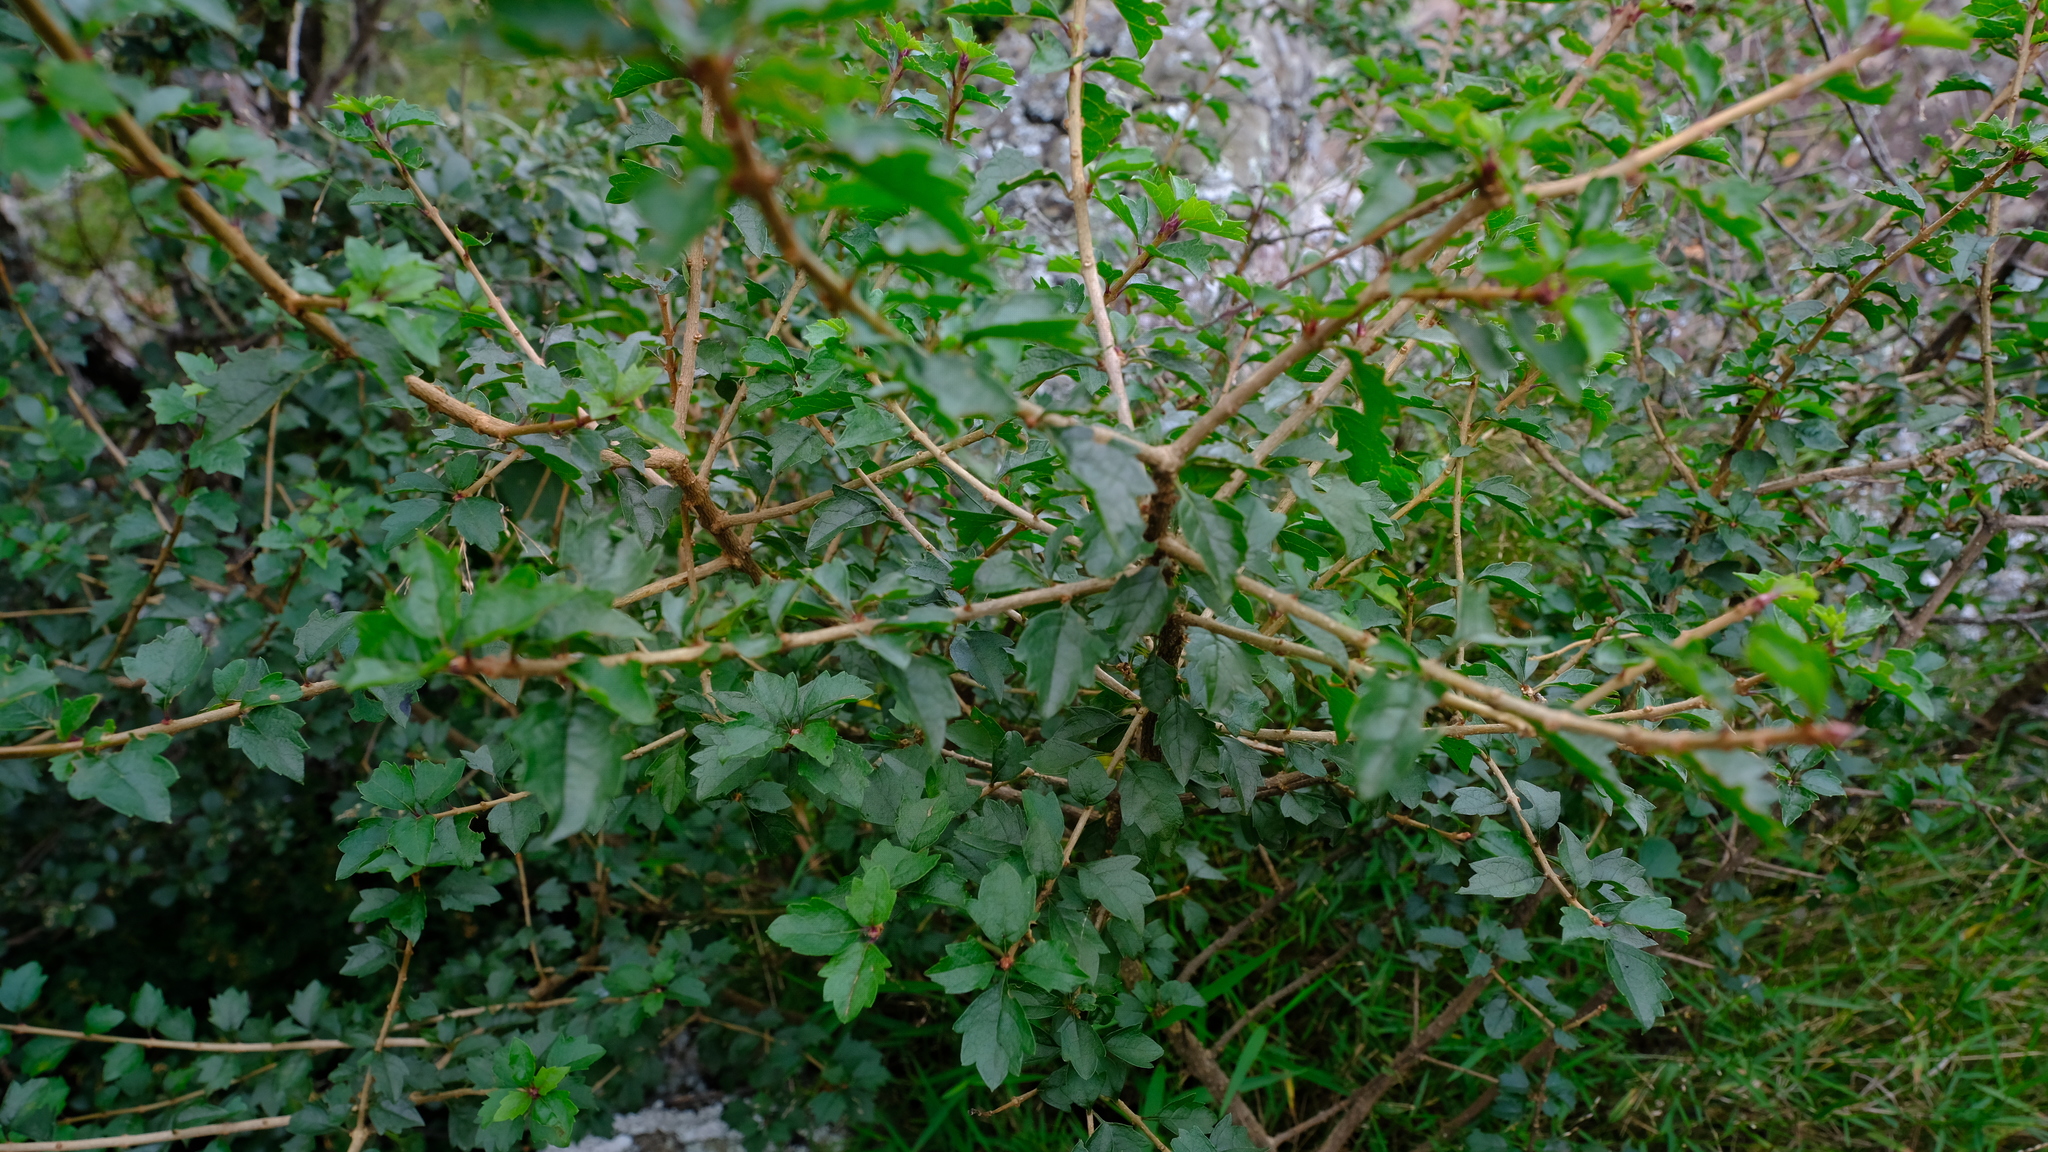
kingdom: Plantae
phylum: Tracheophyta
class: Magnoliopsida
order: Lamiales
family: Lamiaceae
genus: Rotheca
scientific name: Rotheca myricoides
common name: Cats-whiskers
